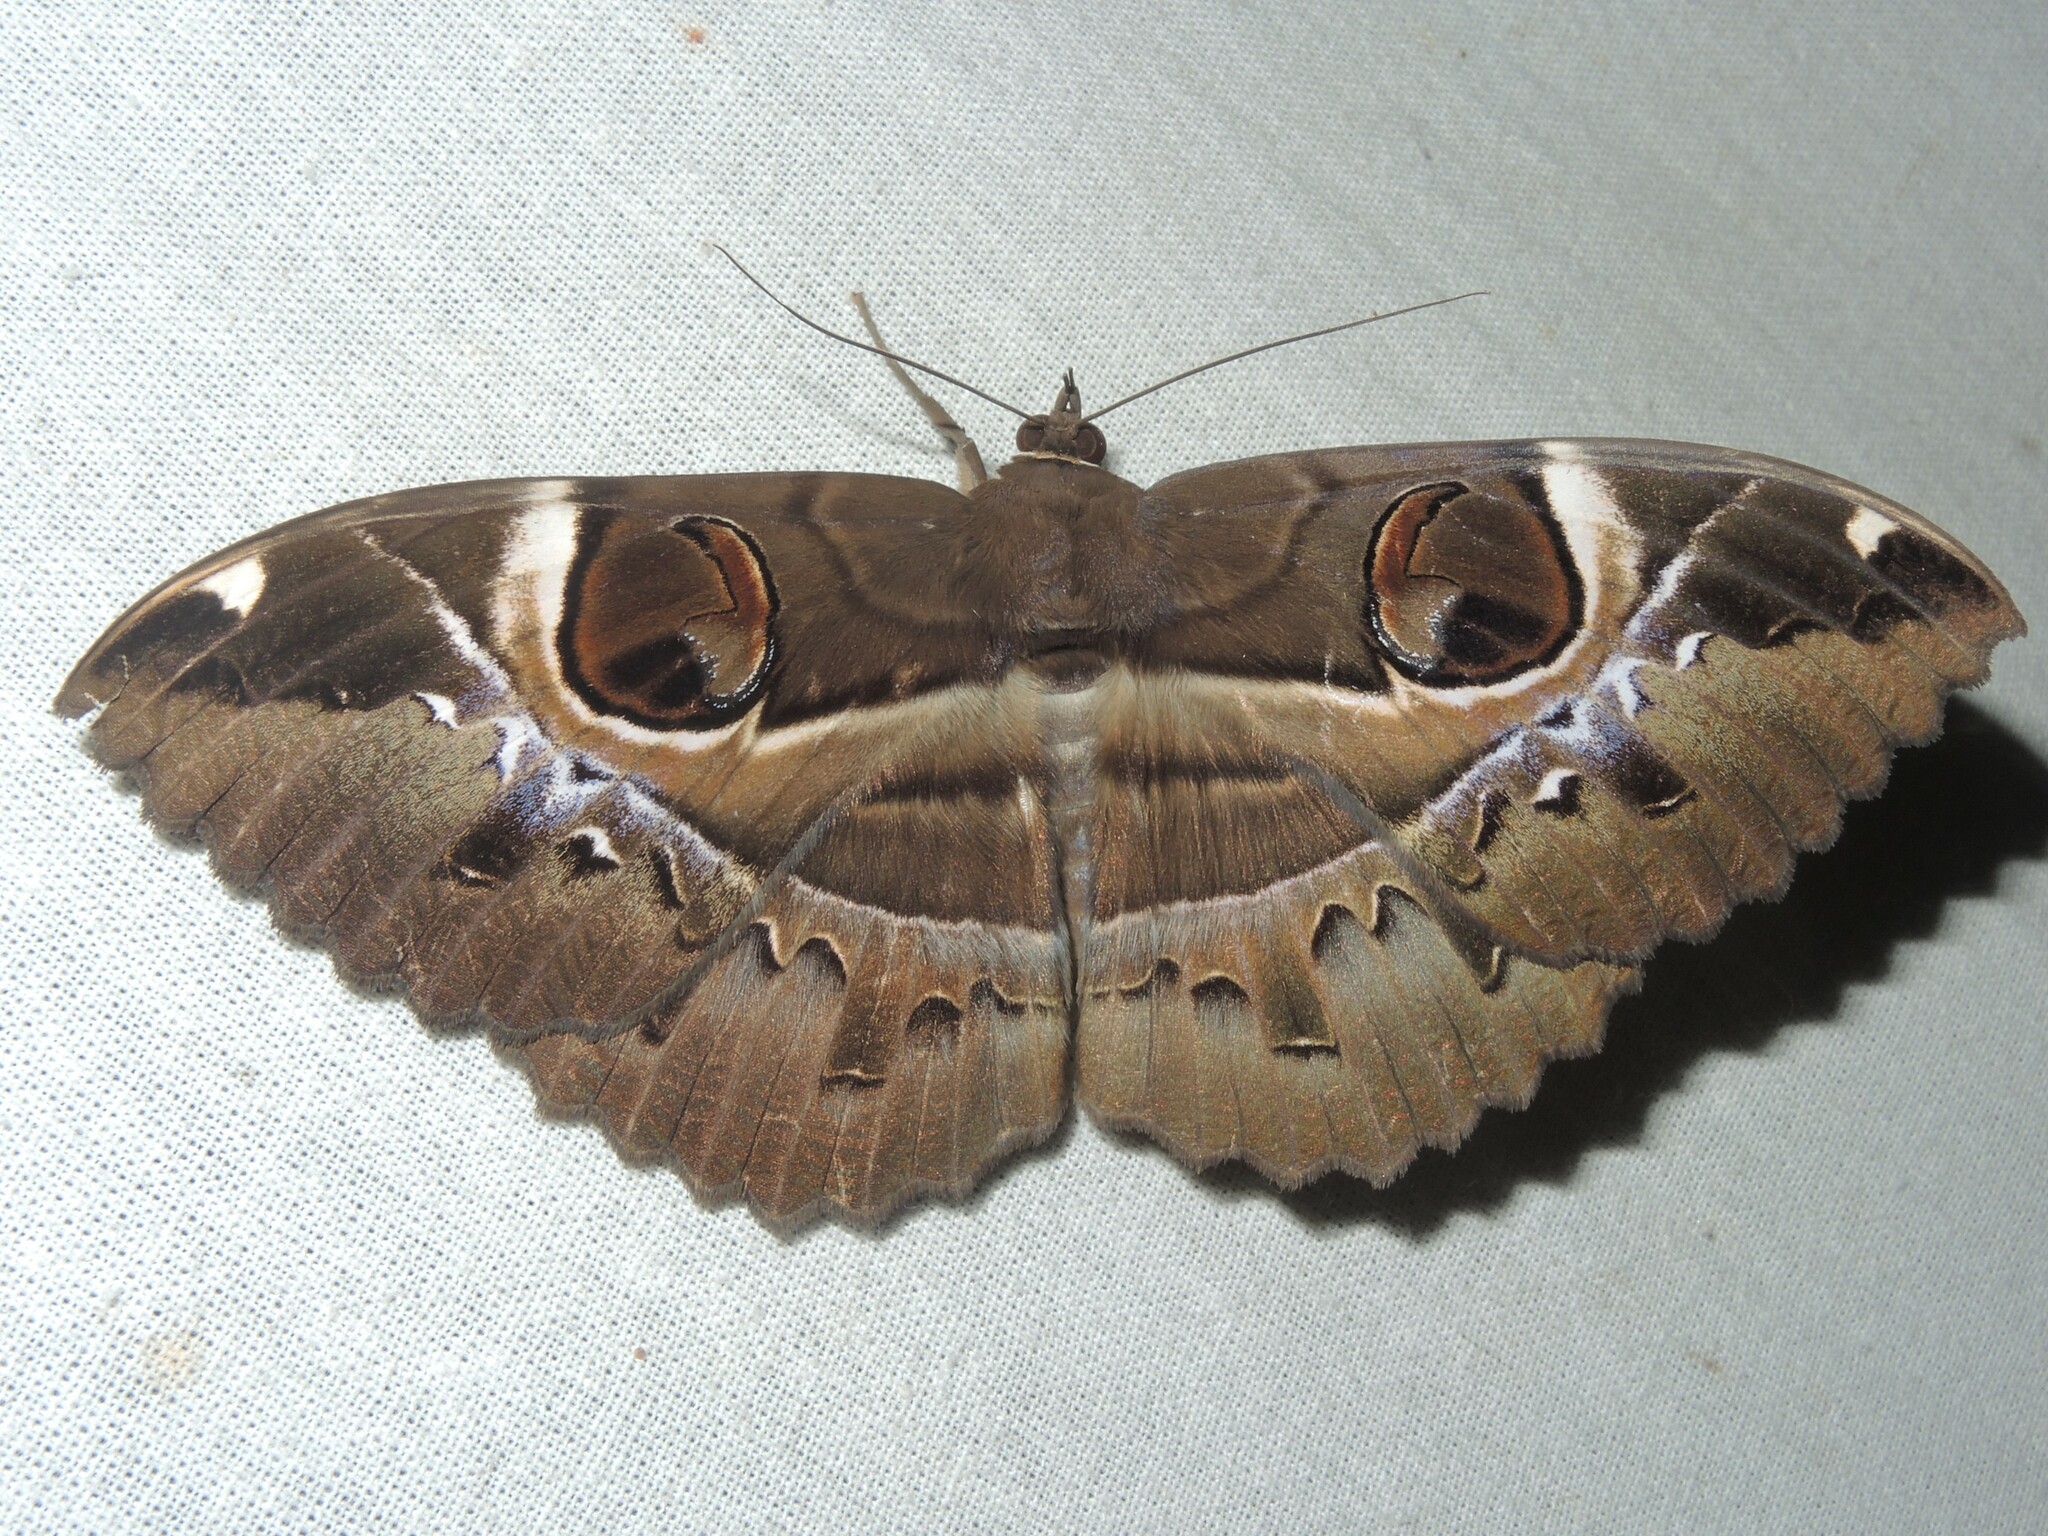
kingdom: Animalia
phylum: Arthropoda
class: Insecta
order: Lepidoptera
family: Erebidae
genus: Erebus
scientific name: Erebus ephesperis
